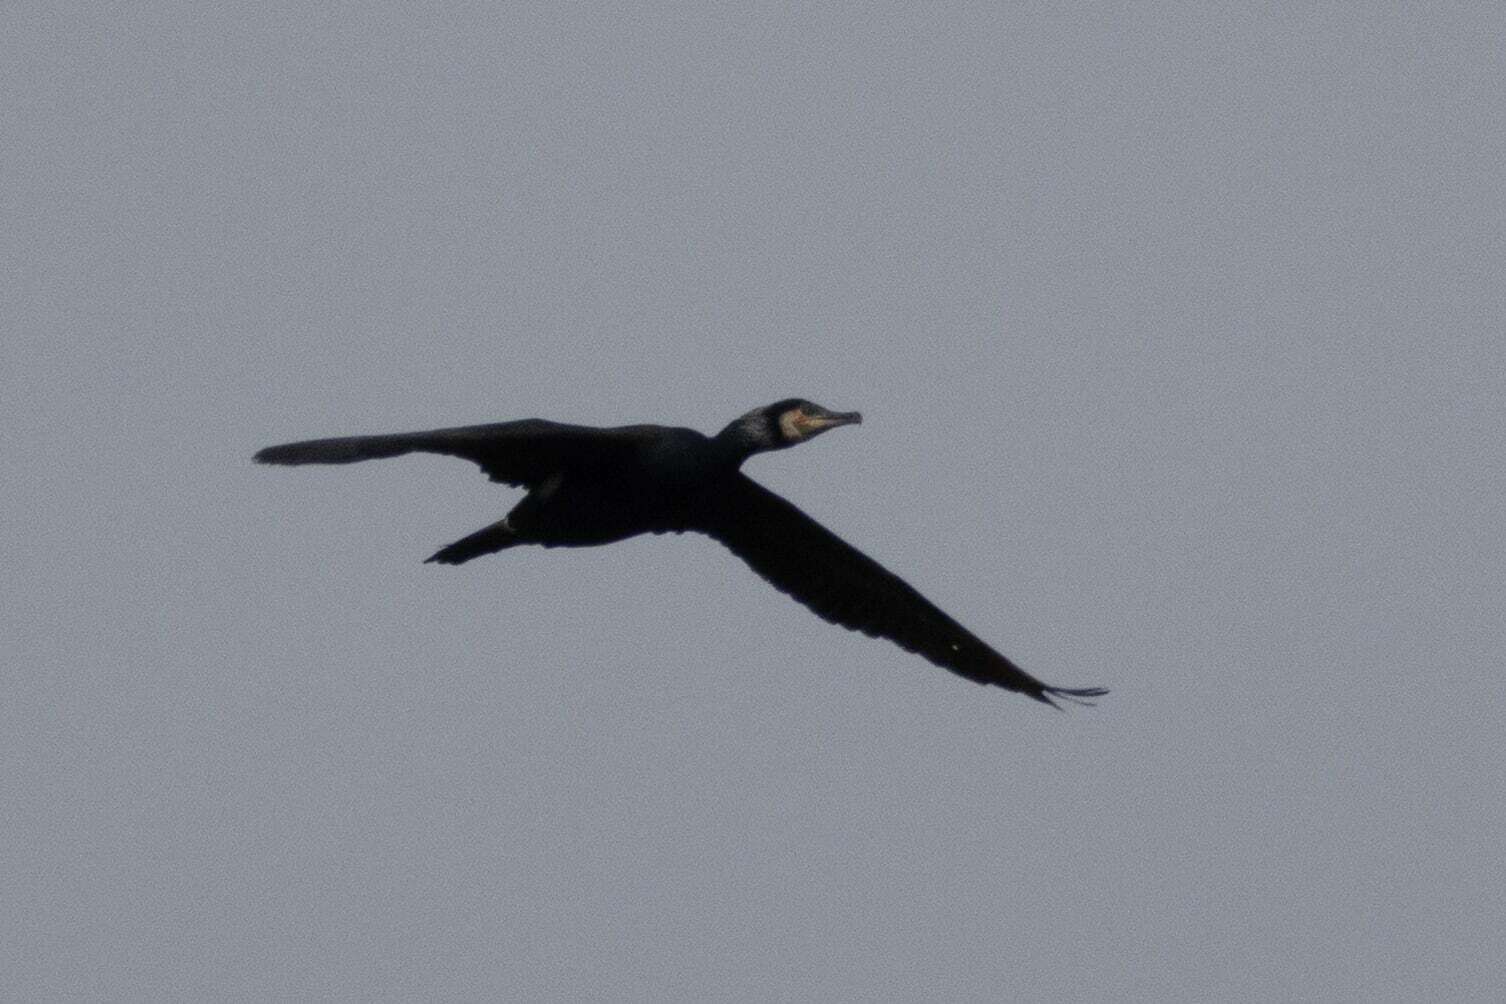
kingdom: Animalia
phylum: Chordata
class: Aves
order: Suliformes
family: Phalacrocoracidae
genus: Phalacrocorax
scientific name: Phalacrocorax carbo
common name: Great cormorant
